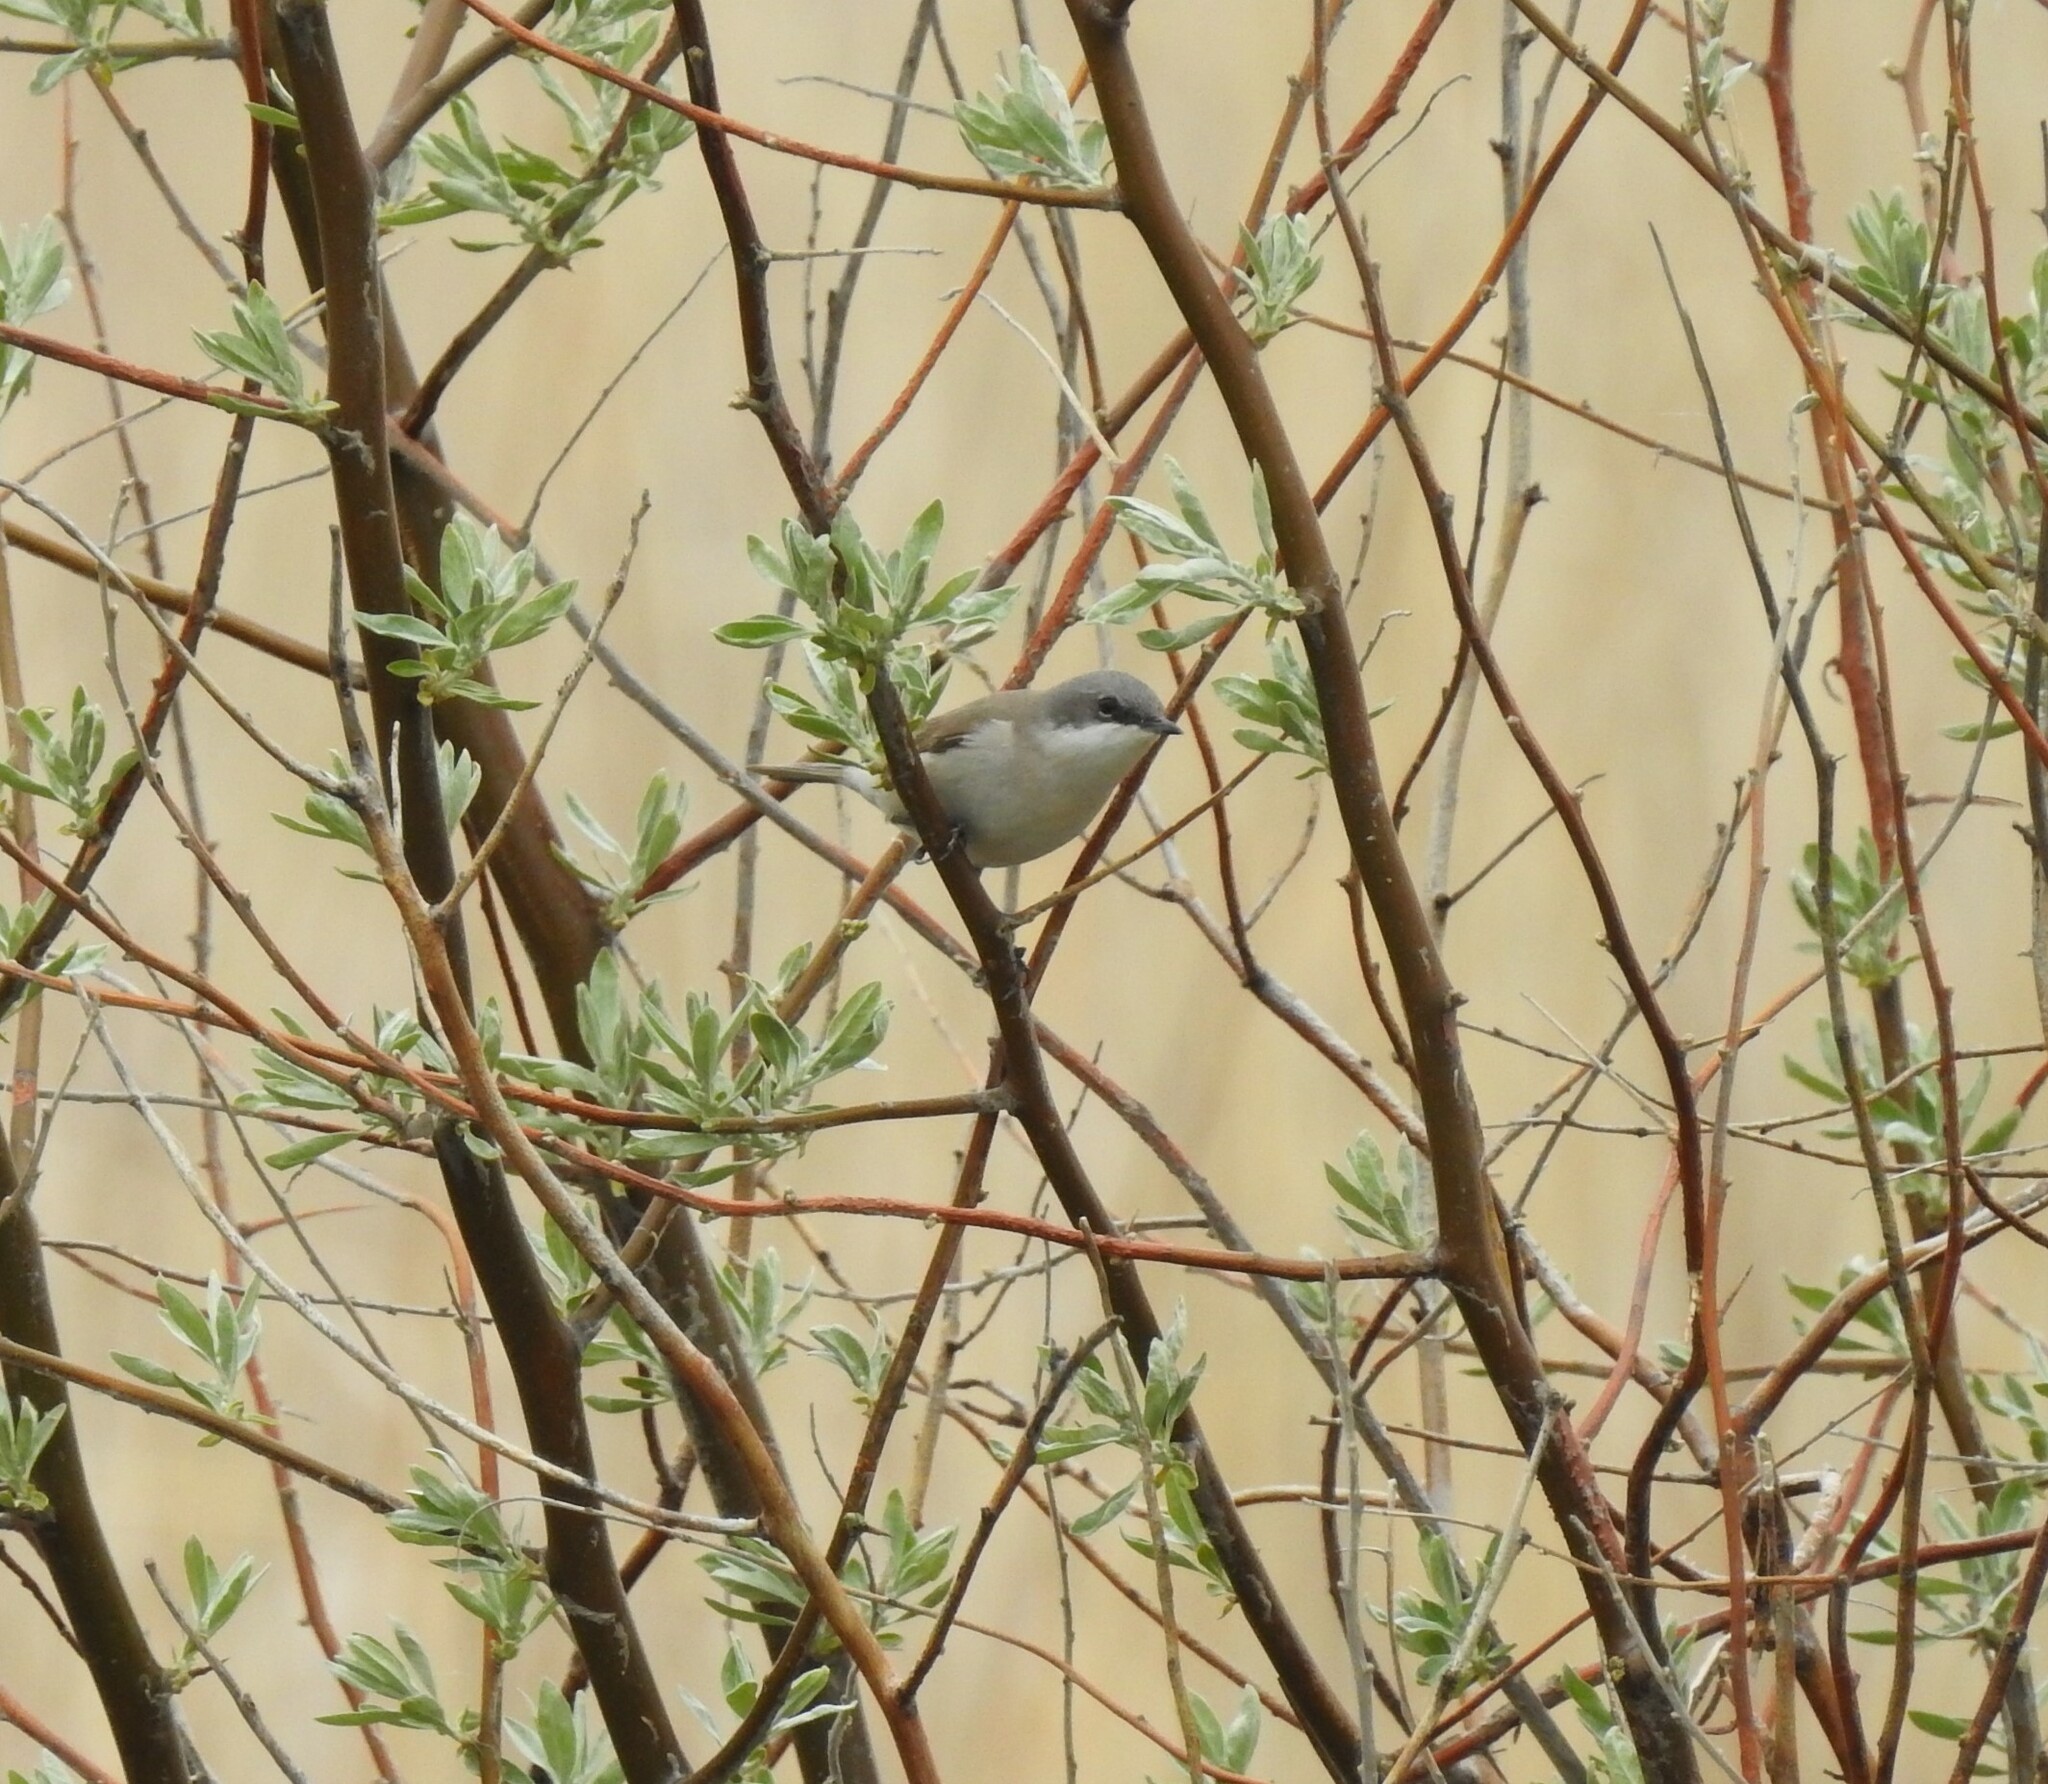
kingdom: Animalia
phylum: Chordata
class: Aves
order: Passeriformes
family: Sylviidae
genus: Sylvia
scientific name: Sylvia curruca
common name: Lesser whitethroat
